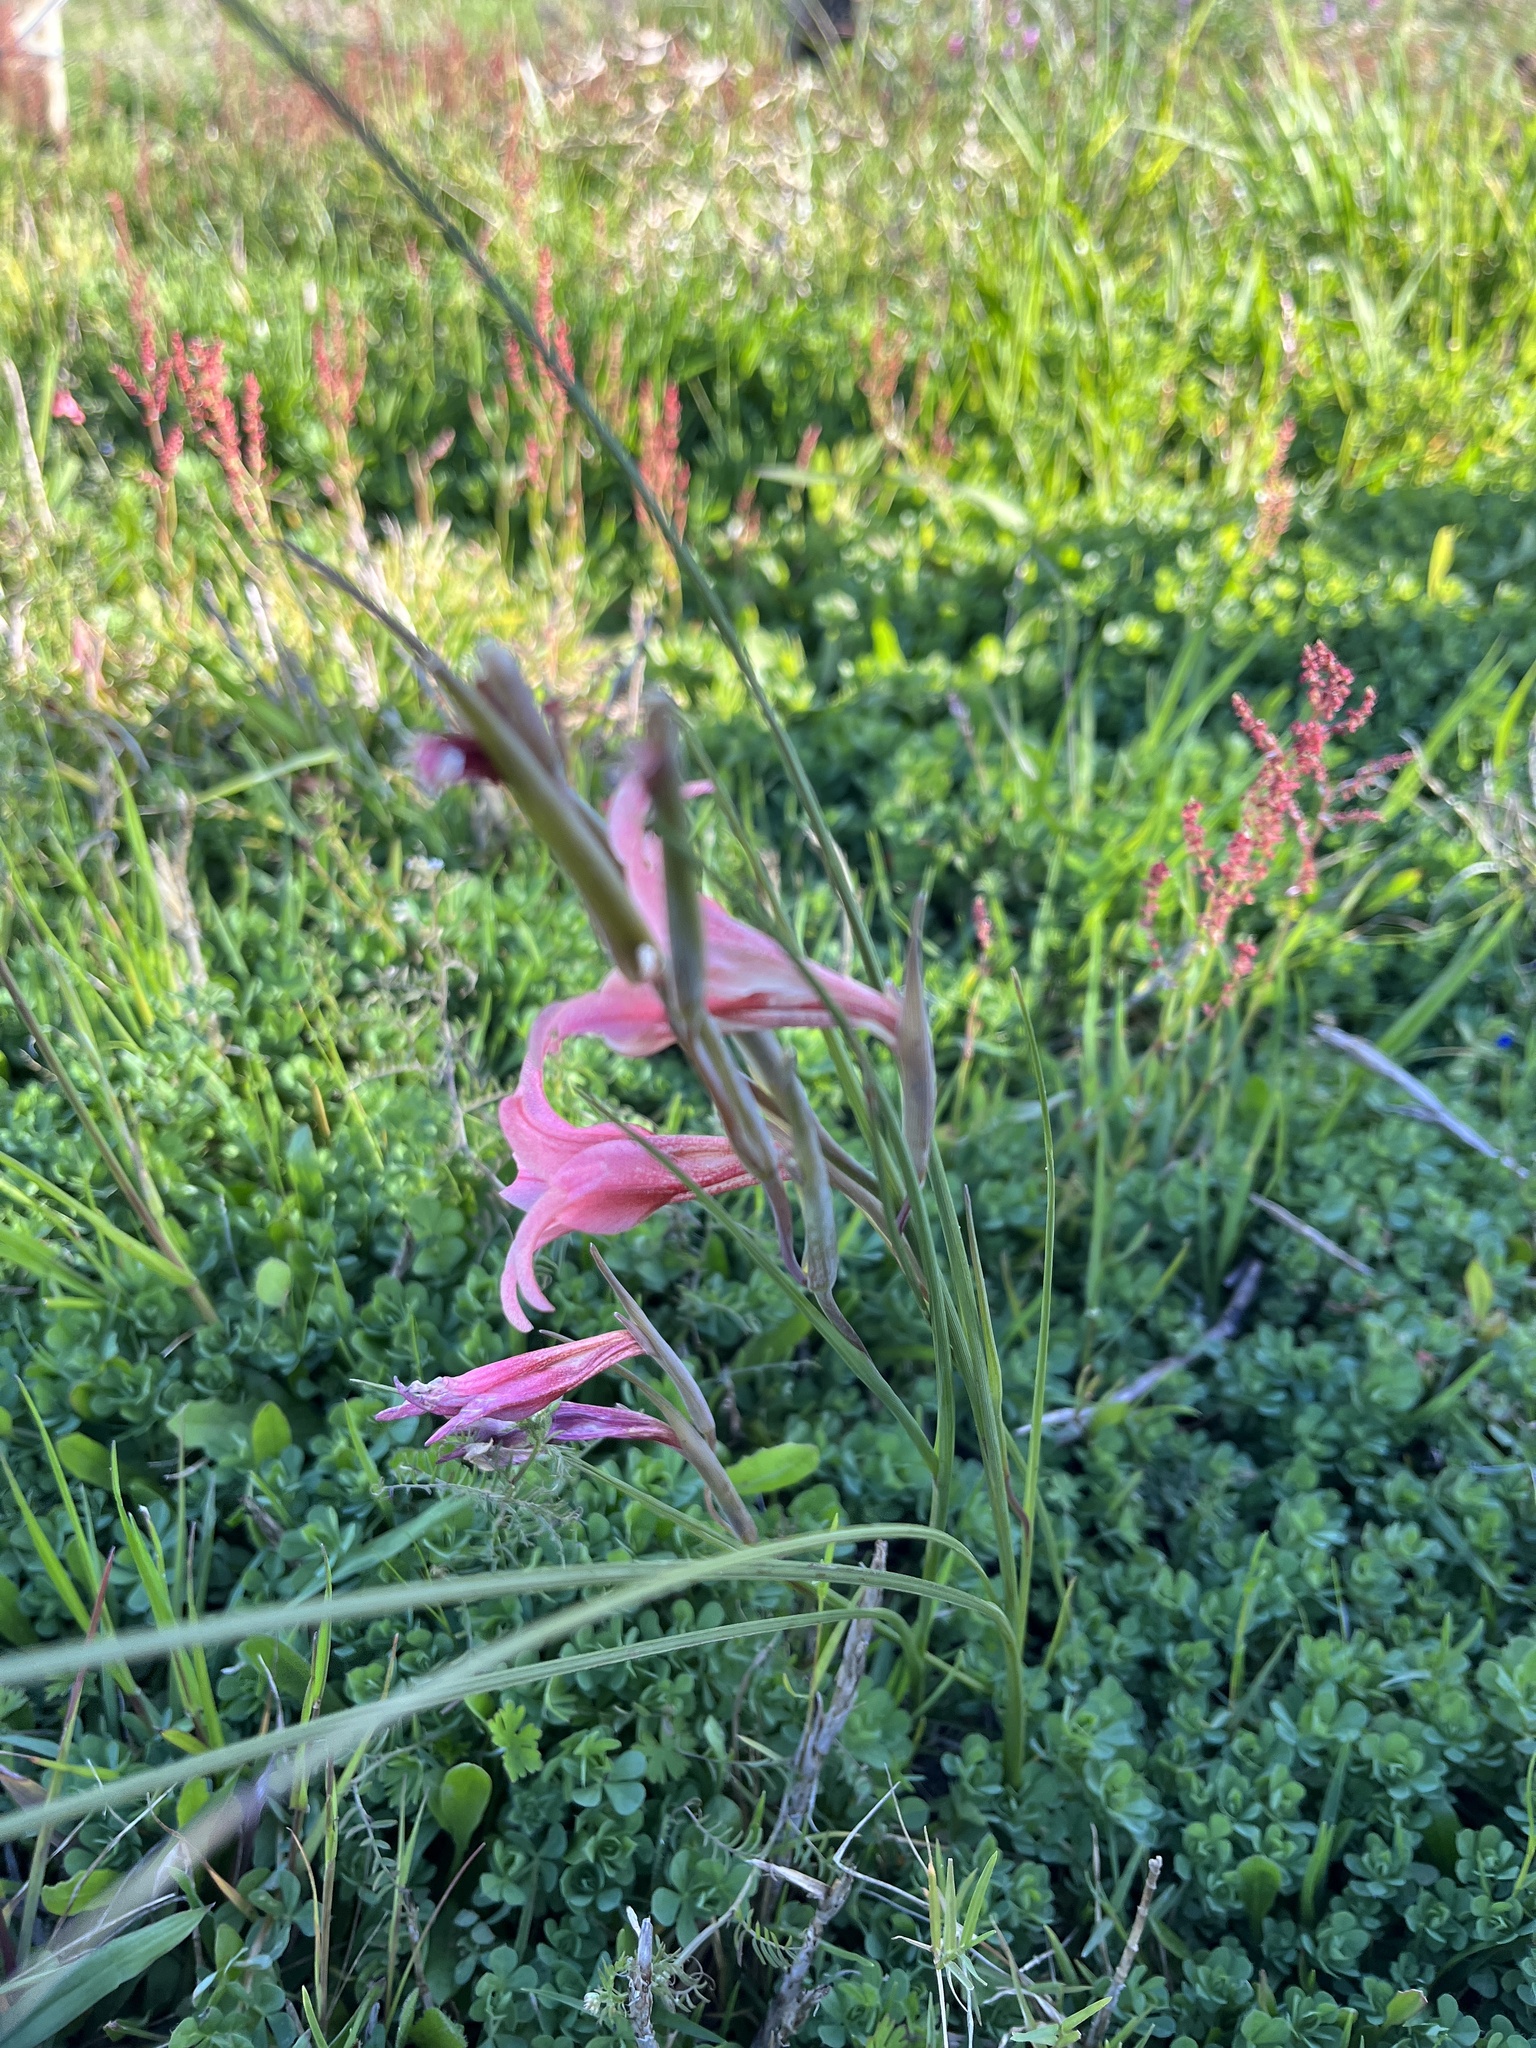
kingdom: Plantae
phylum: Tracheophyta
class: Liliopsida
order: Asparagales
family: Iridaceae
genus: Gladiolus
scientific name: Gladiolus liliaceus
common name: Large brown afrikaner
